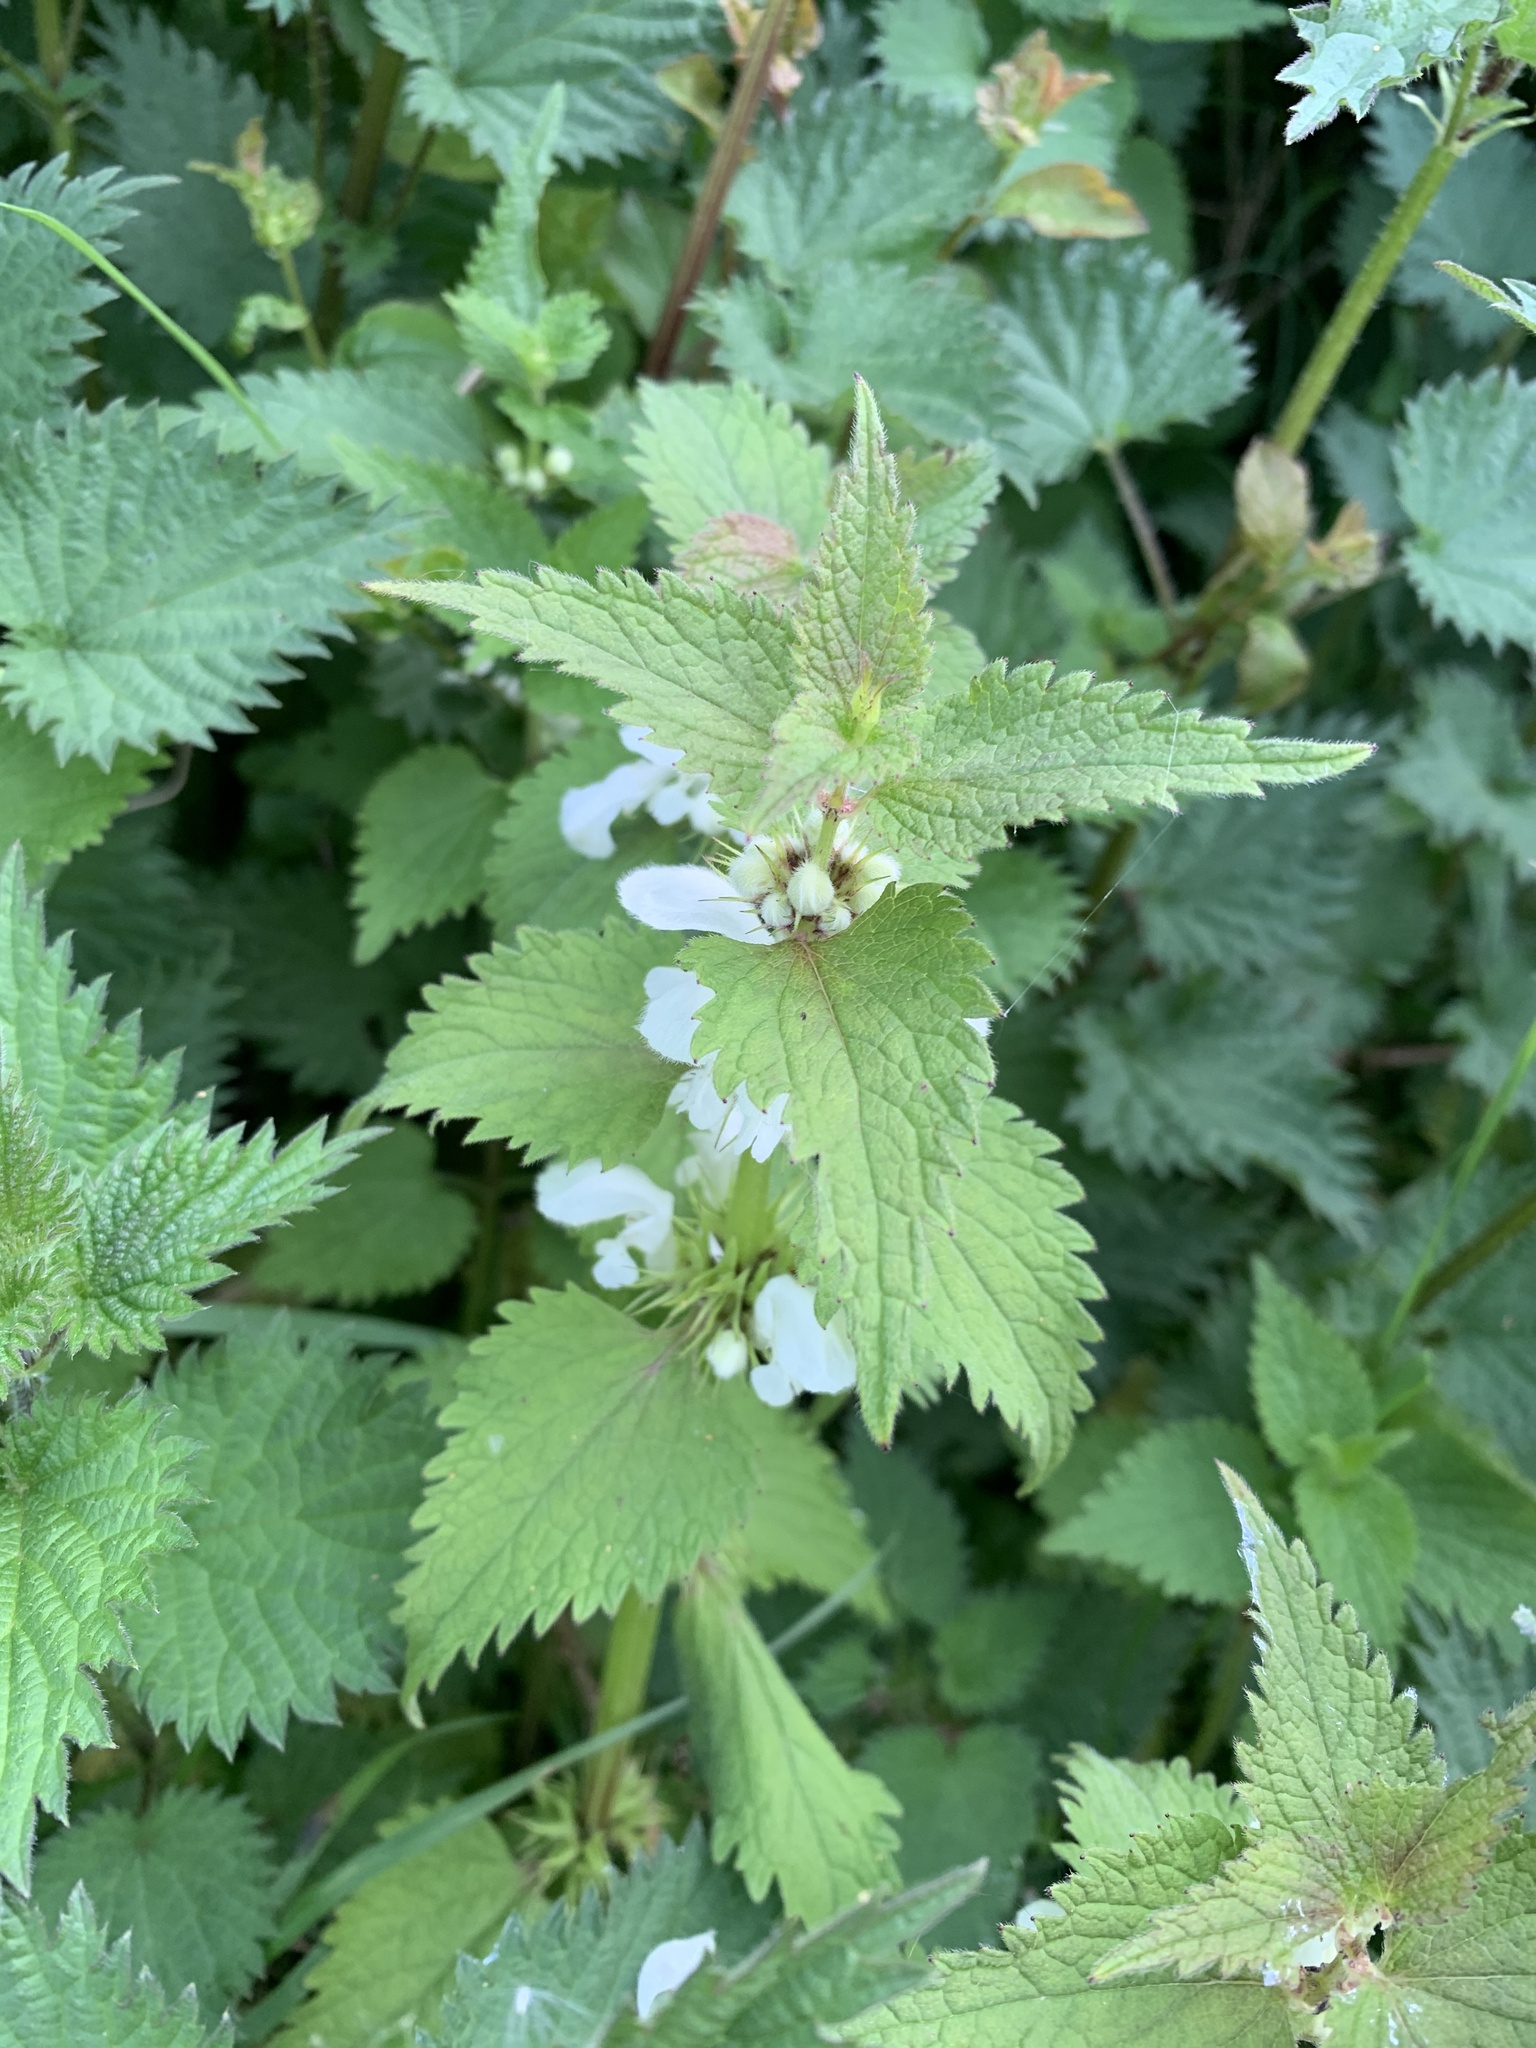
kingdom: Plantae
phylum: Tracheophyta
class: Magnoliopsida
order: Lamiales
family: Lamiaceae
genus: Lamium
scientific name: Lamium album
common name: White dead-nettle
